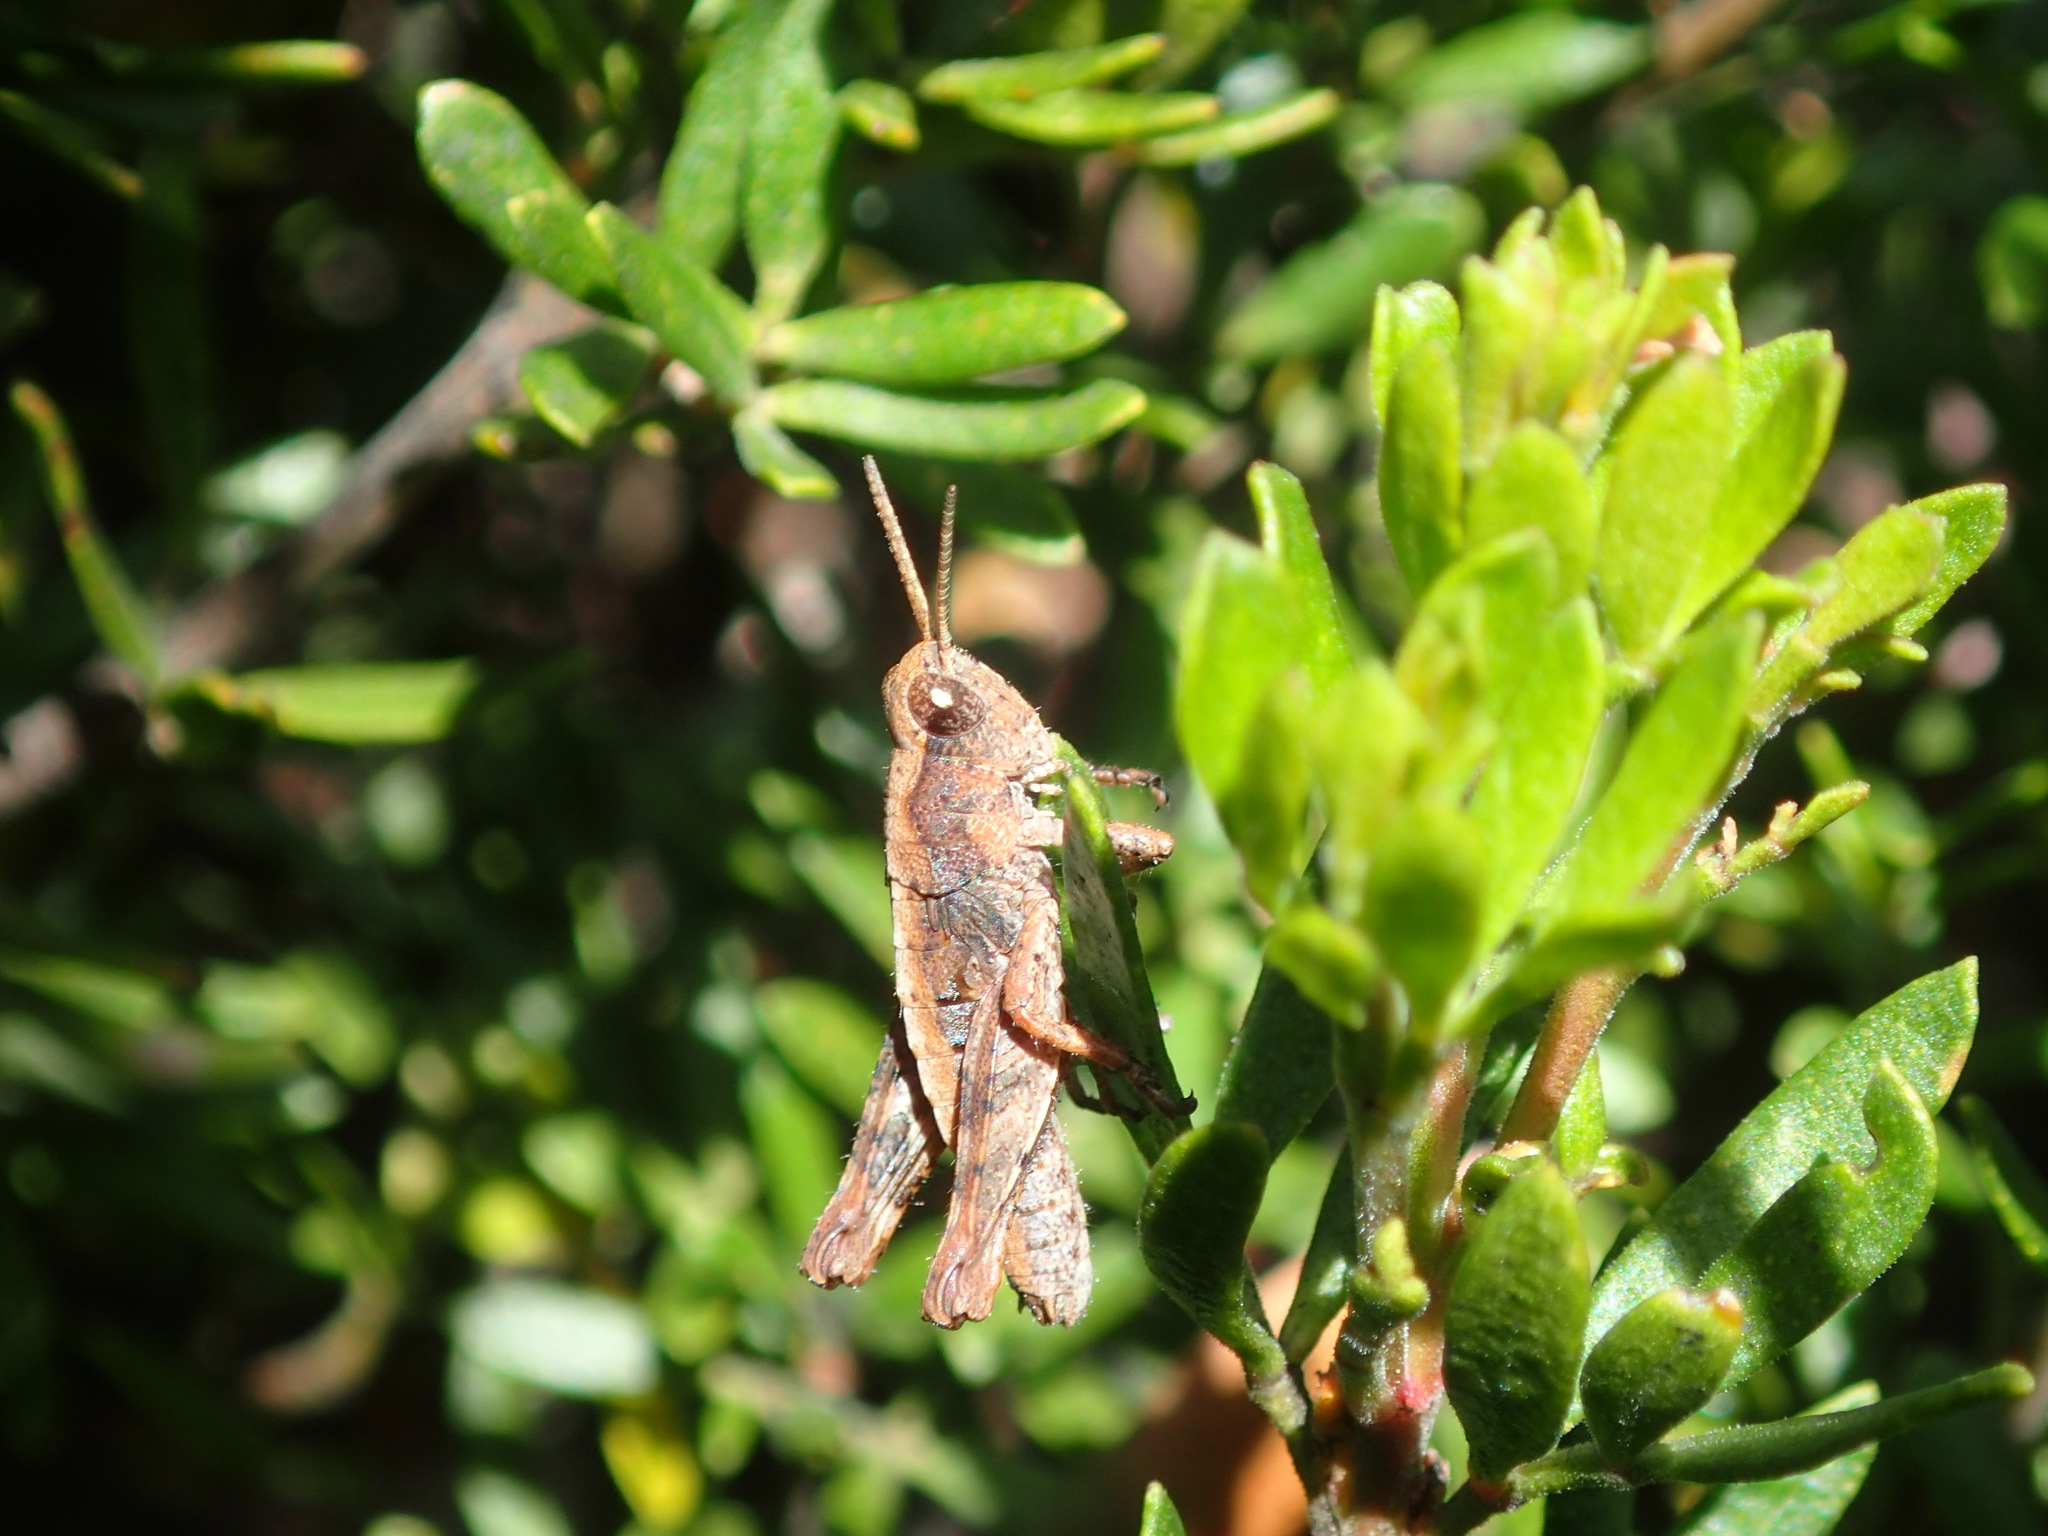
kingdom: Animalia
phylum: Arthropoda
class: Insecta
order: Orthoptera
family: Acrididae
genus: Tasmaniacris
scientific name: Tasmaniacris tasmaniensis
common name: Tasmanian grasshopper
